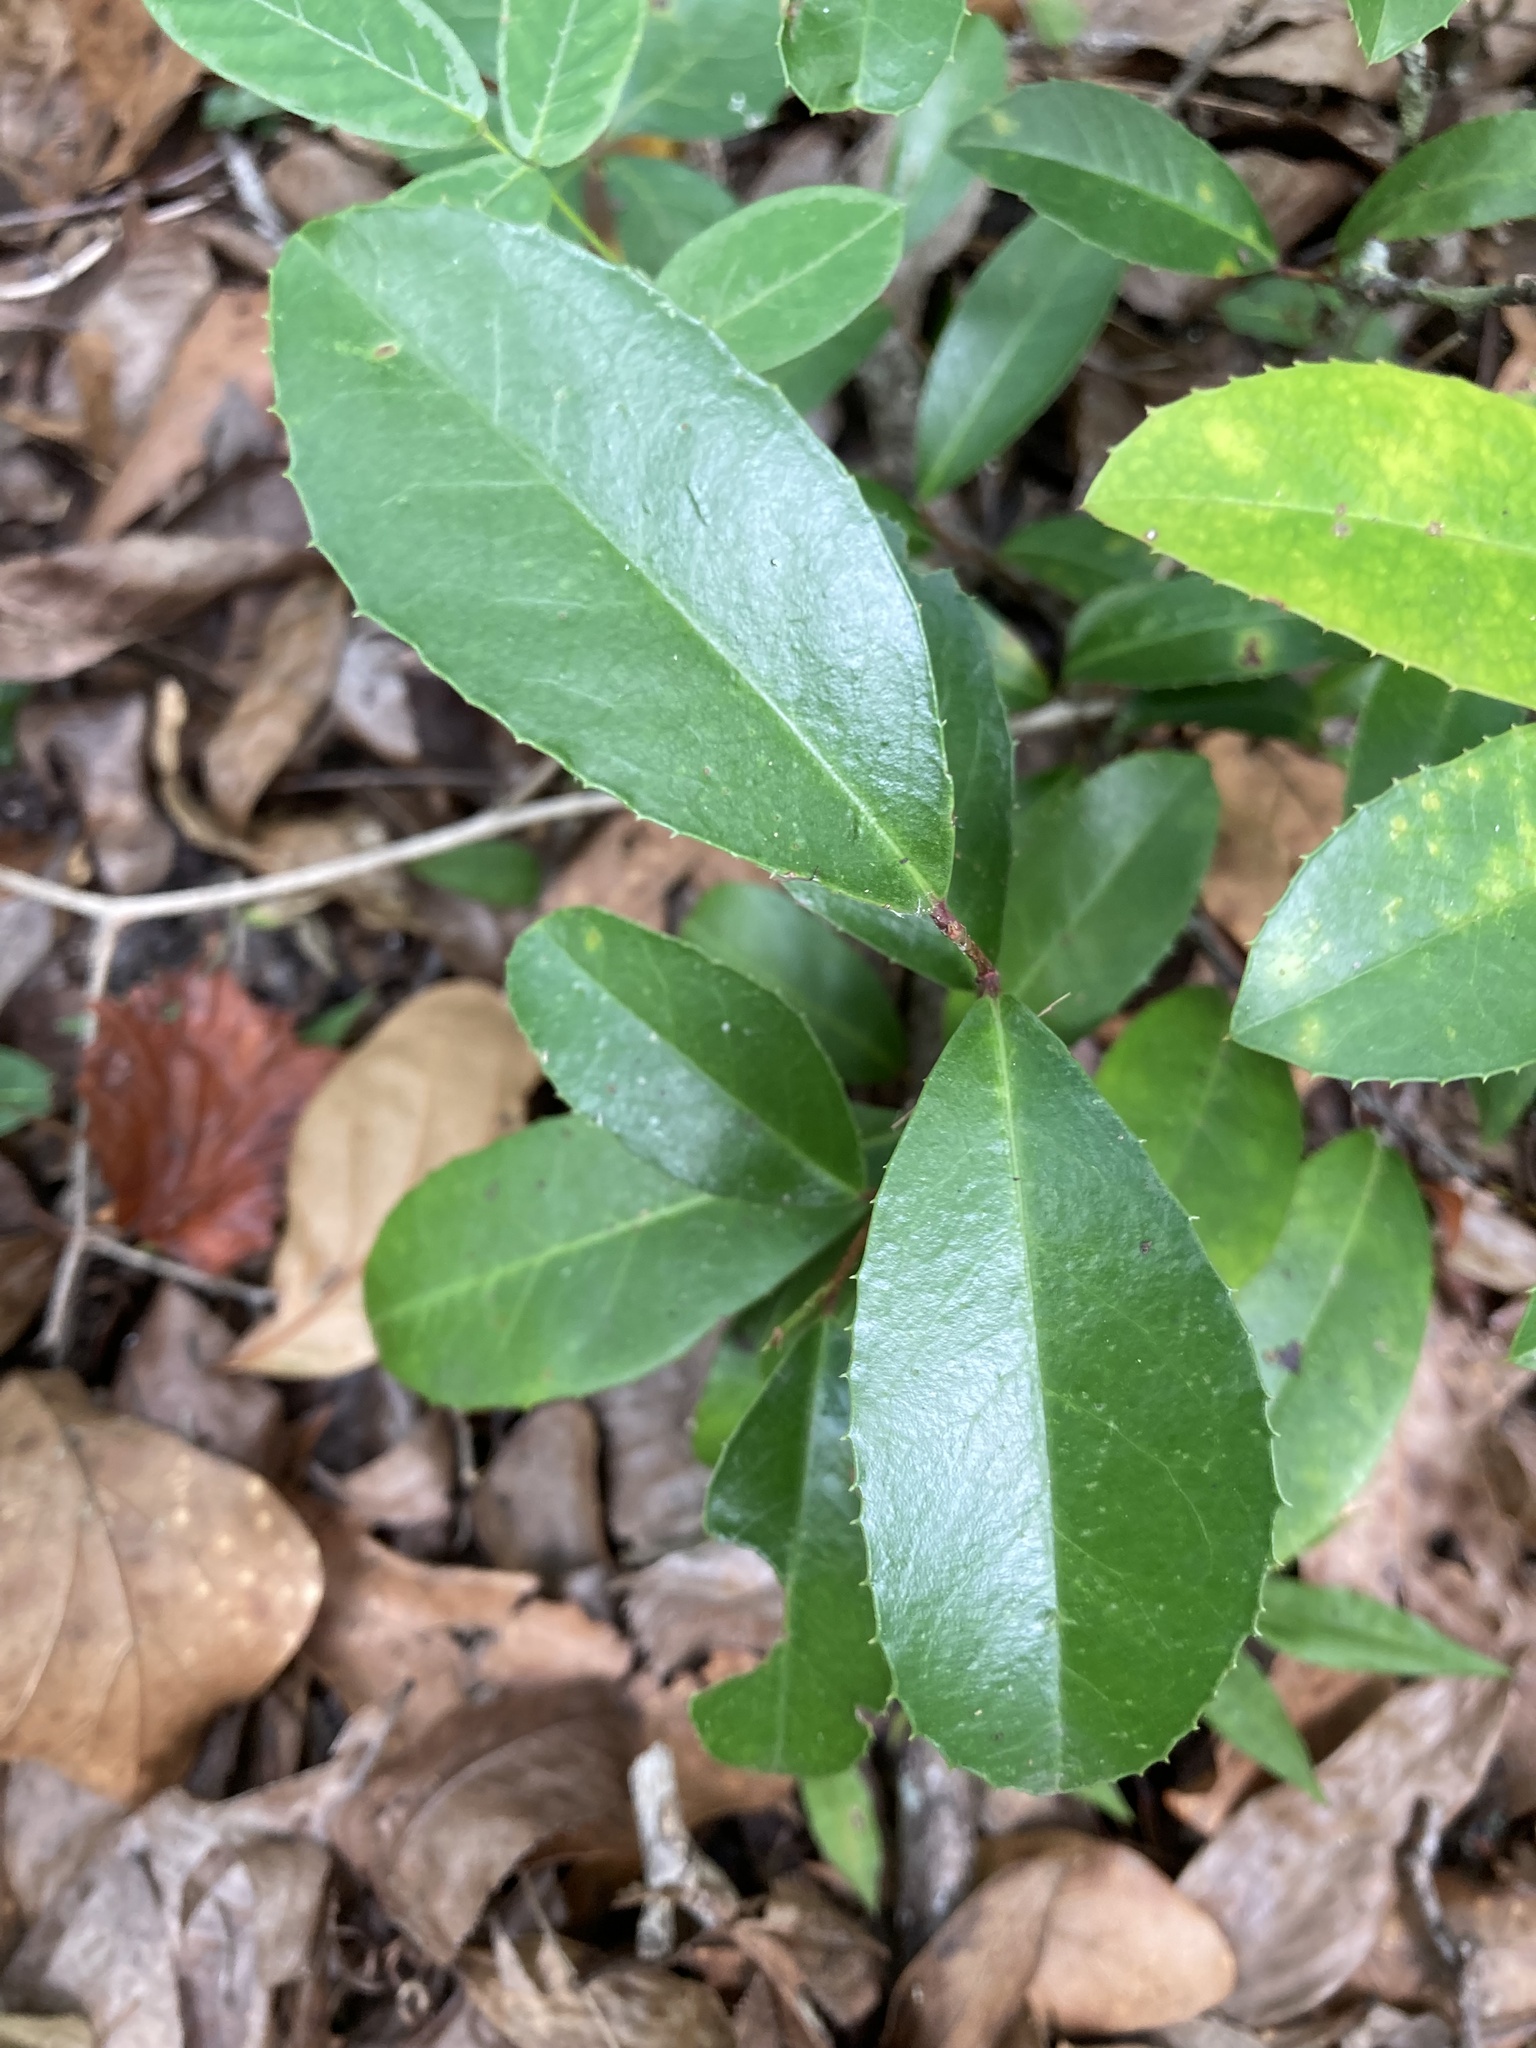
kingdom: Plantae
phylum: Tracheophyta
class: Magnoliopsida
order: Rosales
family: Rosaceae
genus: Prunus
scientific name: Prunus caroliniana
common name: Carolina laurel cherry
